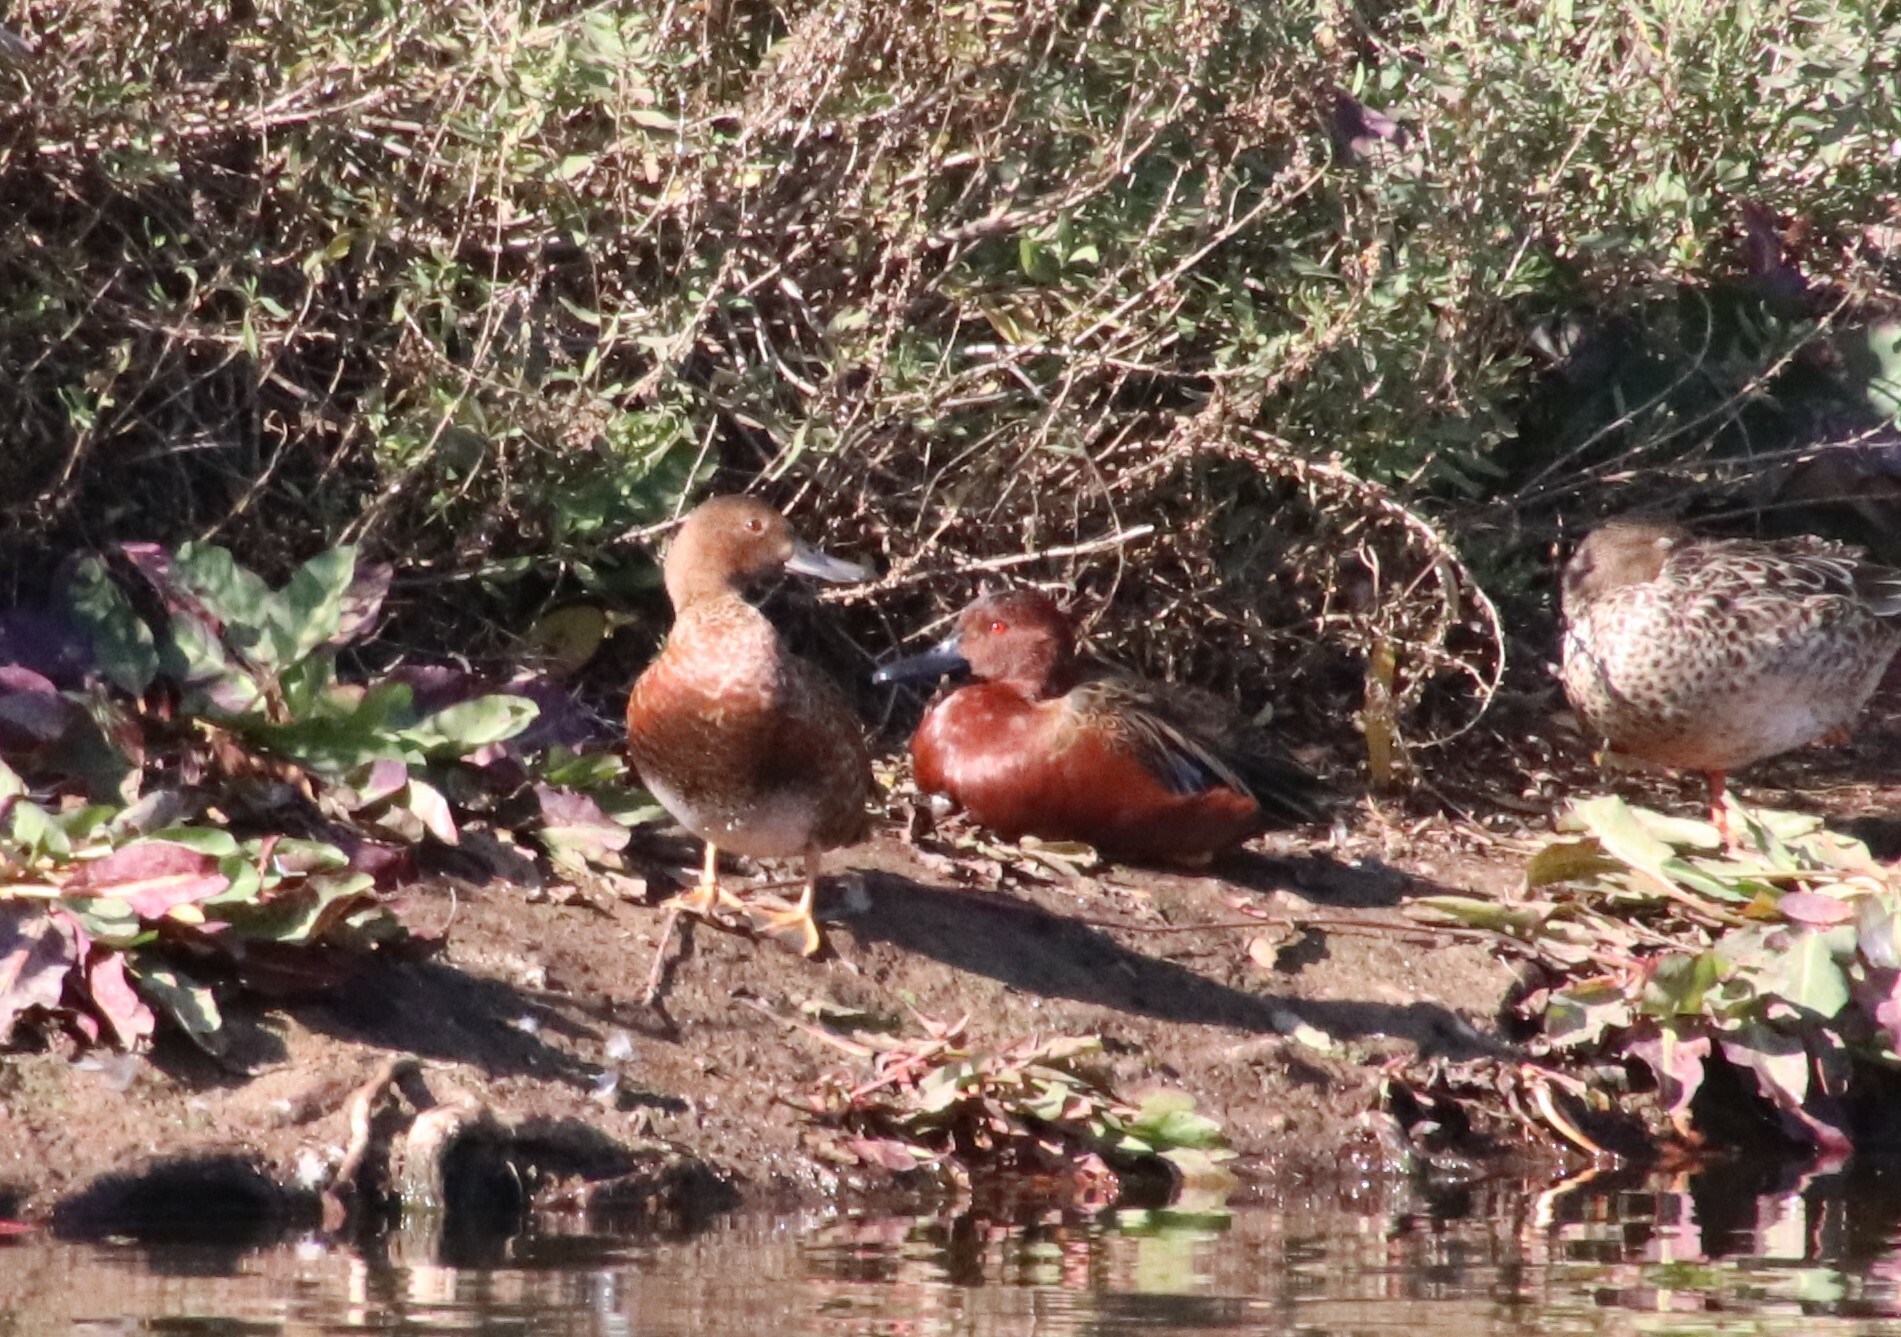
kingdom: Animalia
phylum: Chordata
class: Aves
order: Anseriformes
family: Anatidae
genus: Spatula
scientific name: Spatula cyanoptera
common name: Cinnamon teal
